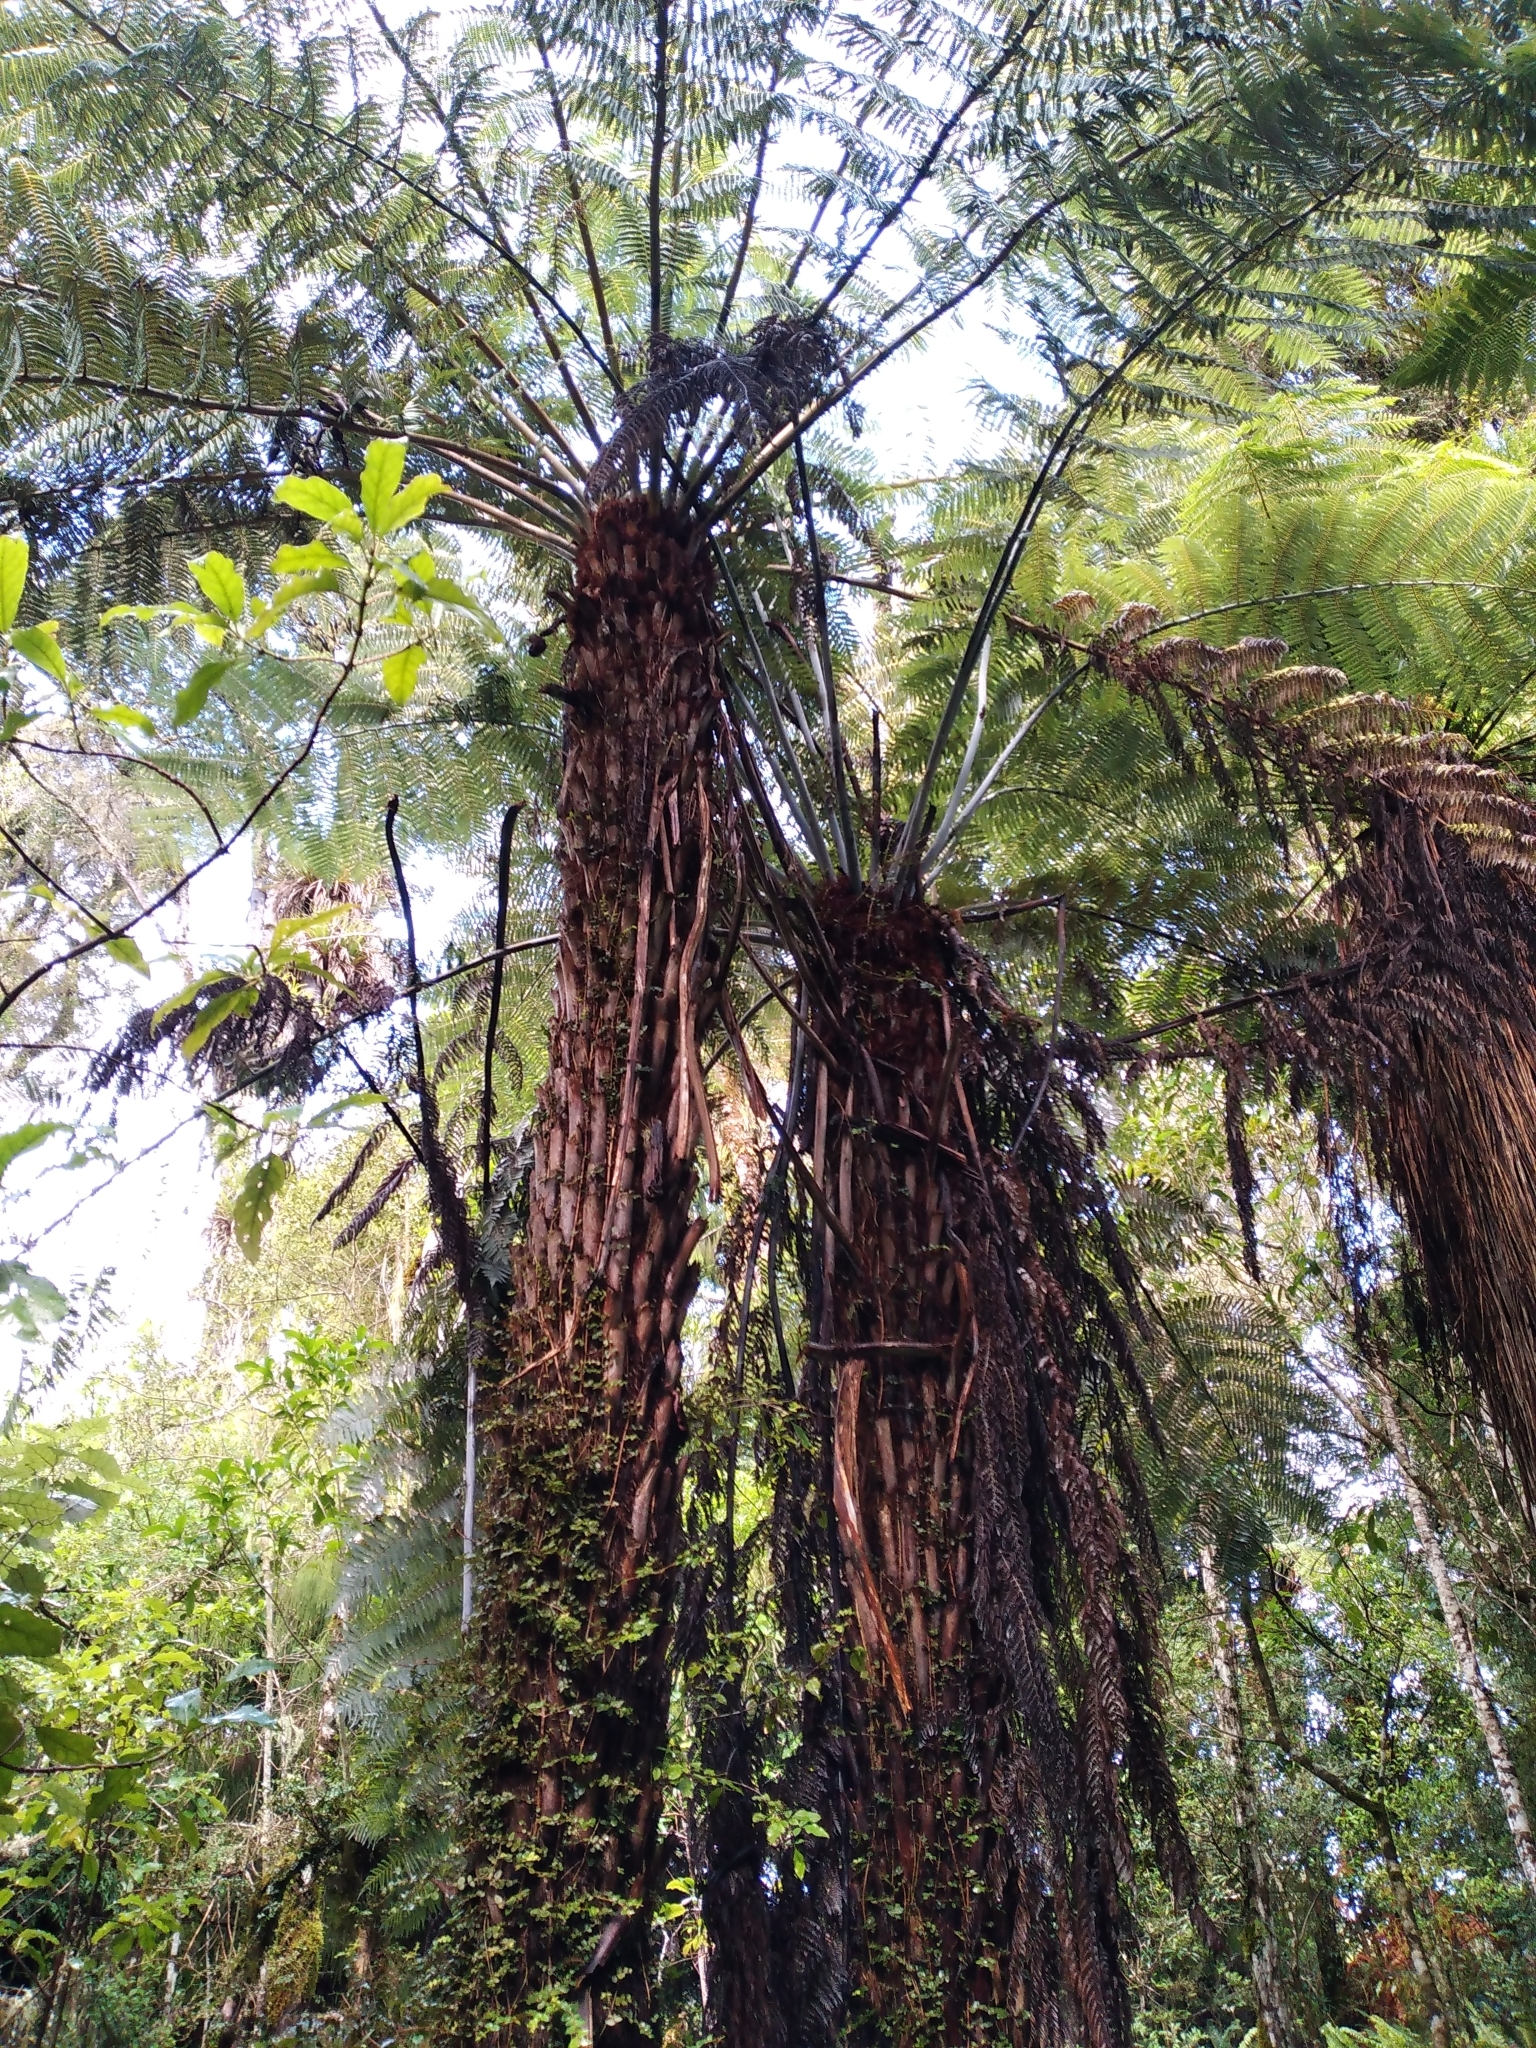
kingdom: Plantae
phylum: Tracheophyta
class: Polypodiopsida
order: Cyatheales
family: Cyatheaceae
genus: Alsophila
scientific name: Alsophila dealbata
